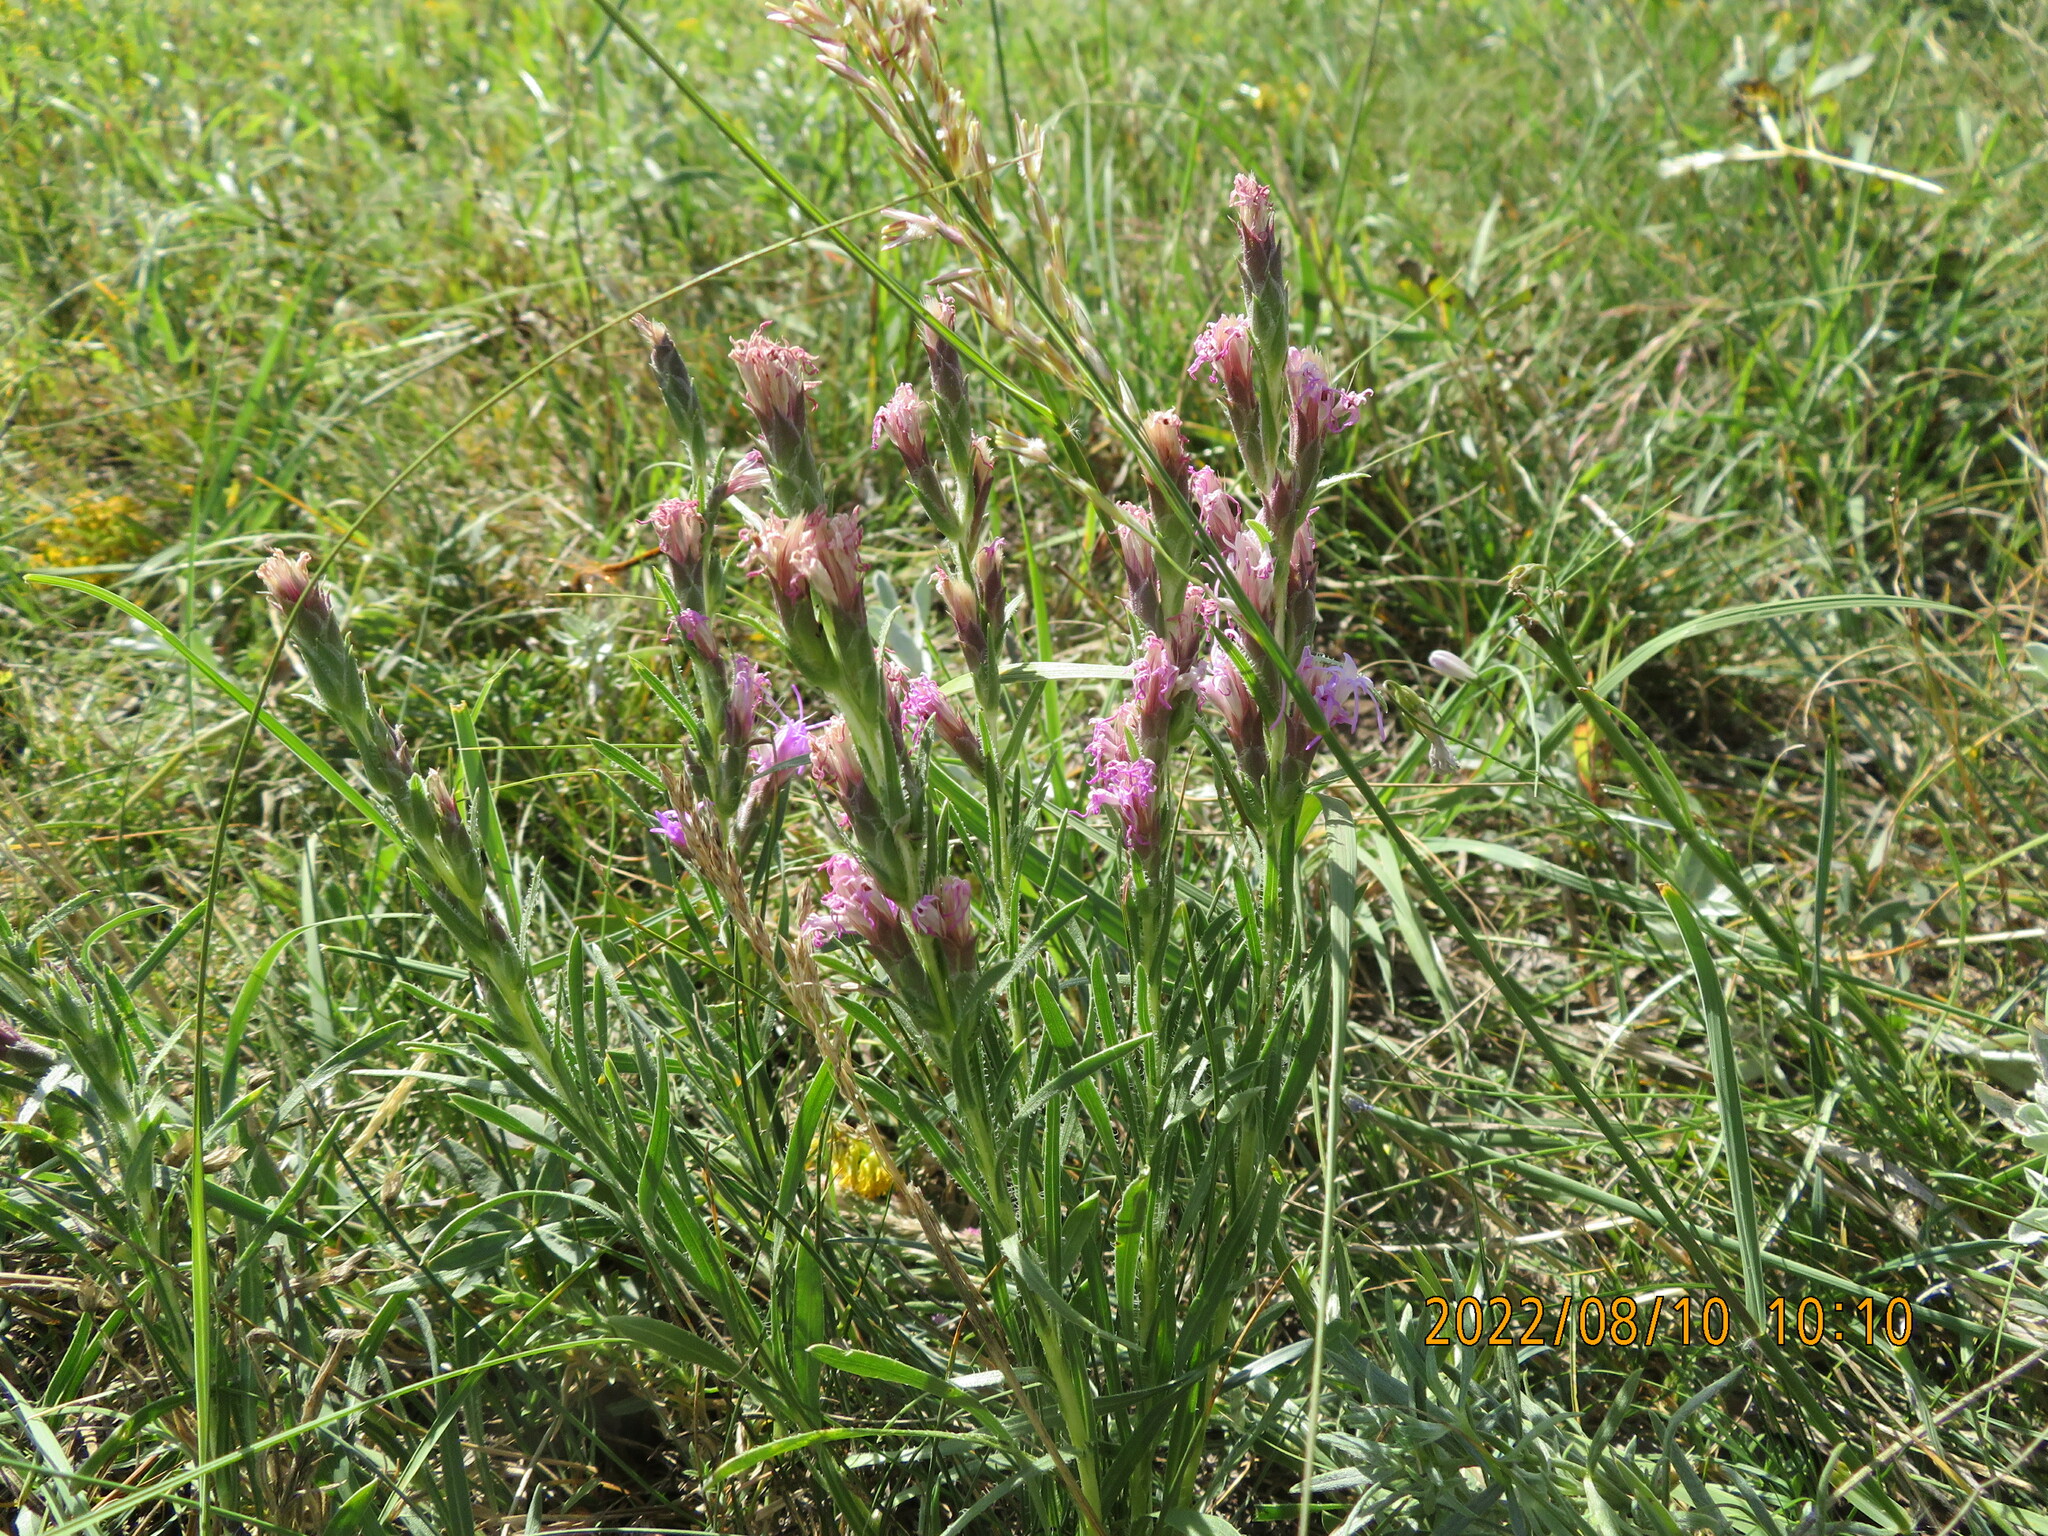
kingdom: Plantae
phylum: Tracheophyta
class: Magnoliopsida
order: Asterales
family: Asteraceae
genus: Liatris
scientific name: Liatris punctata
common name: Dotted gayfeather
